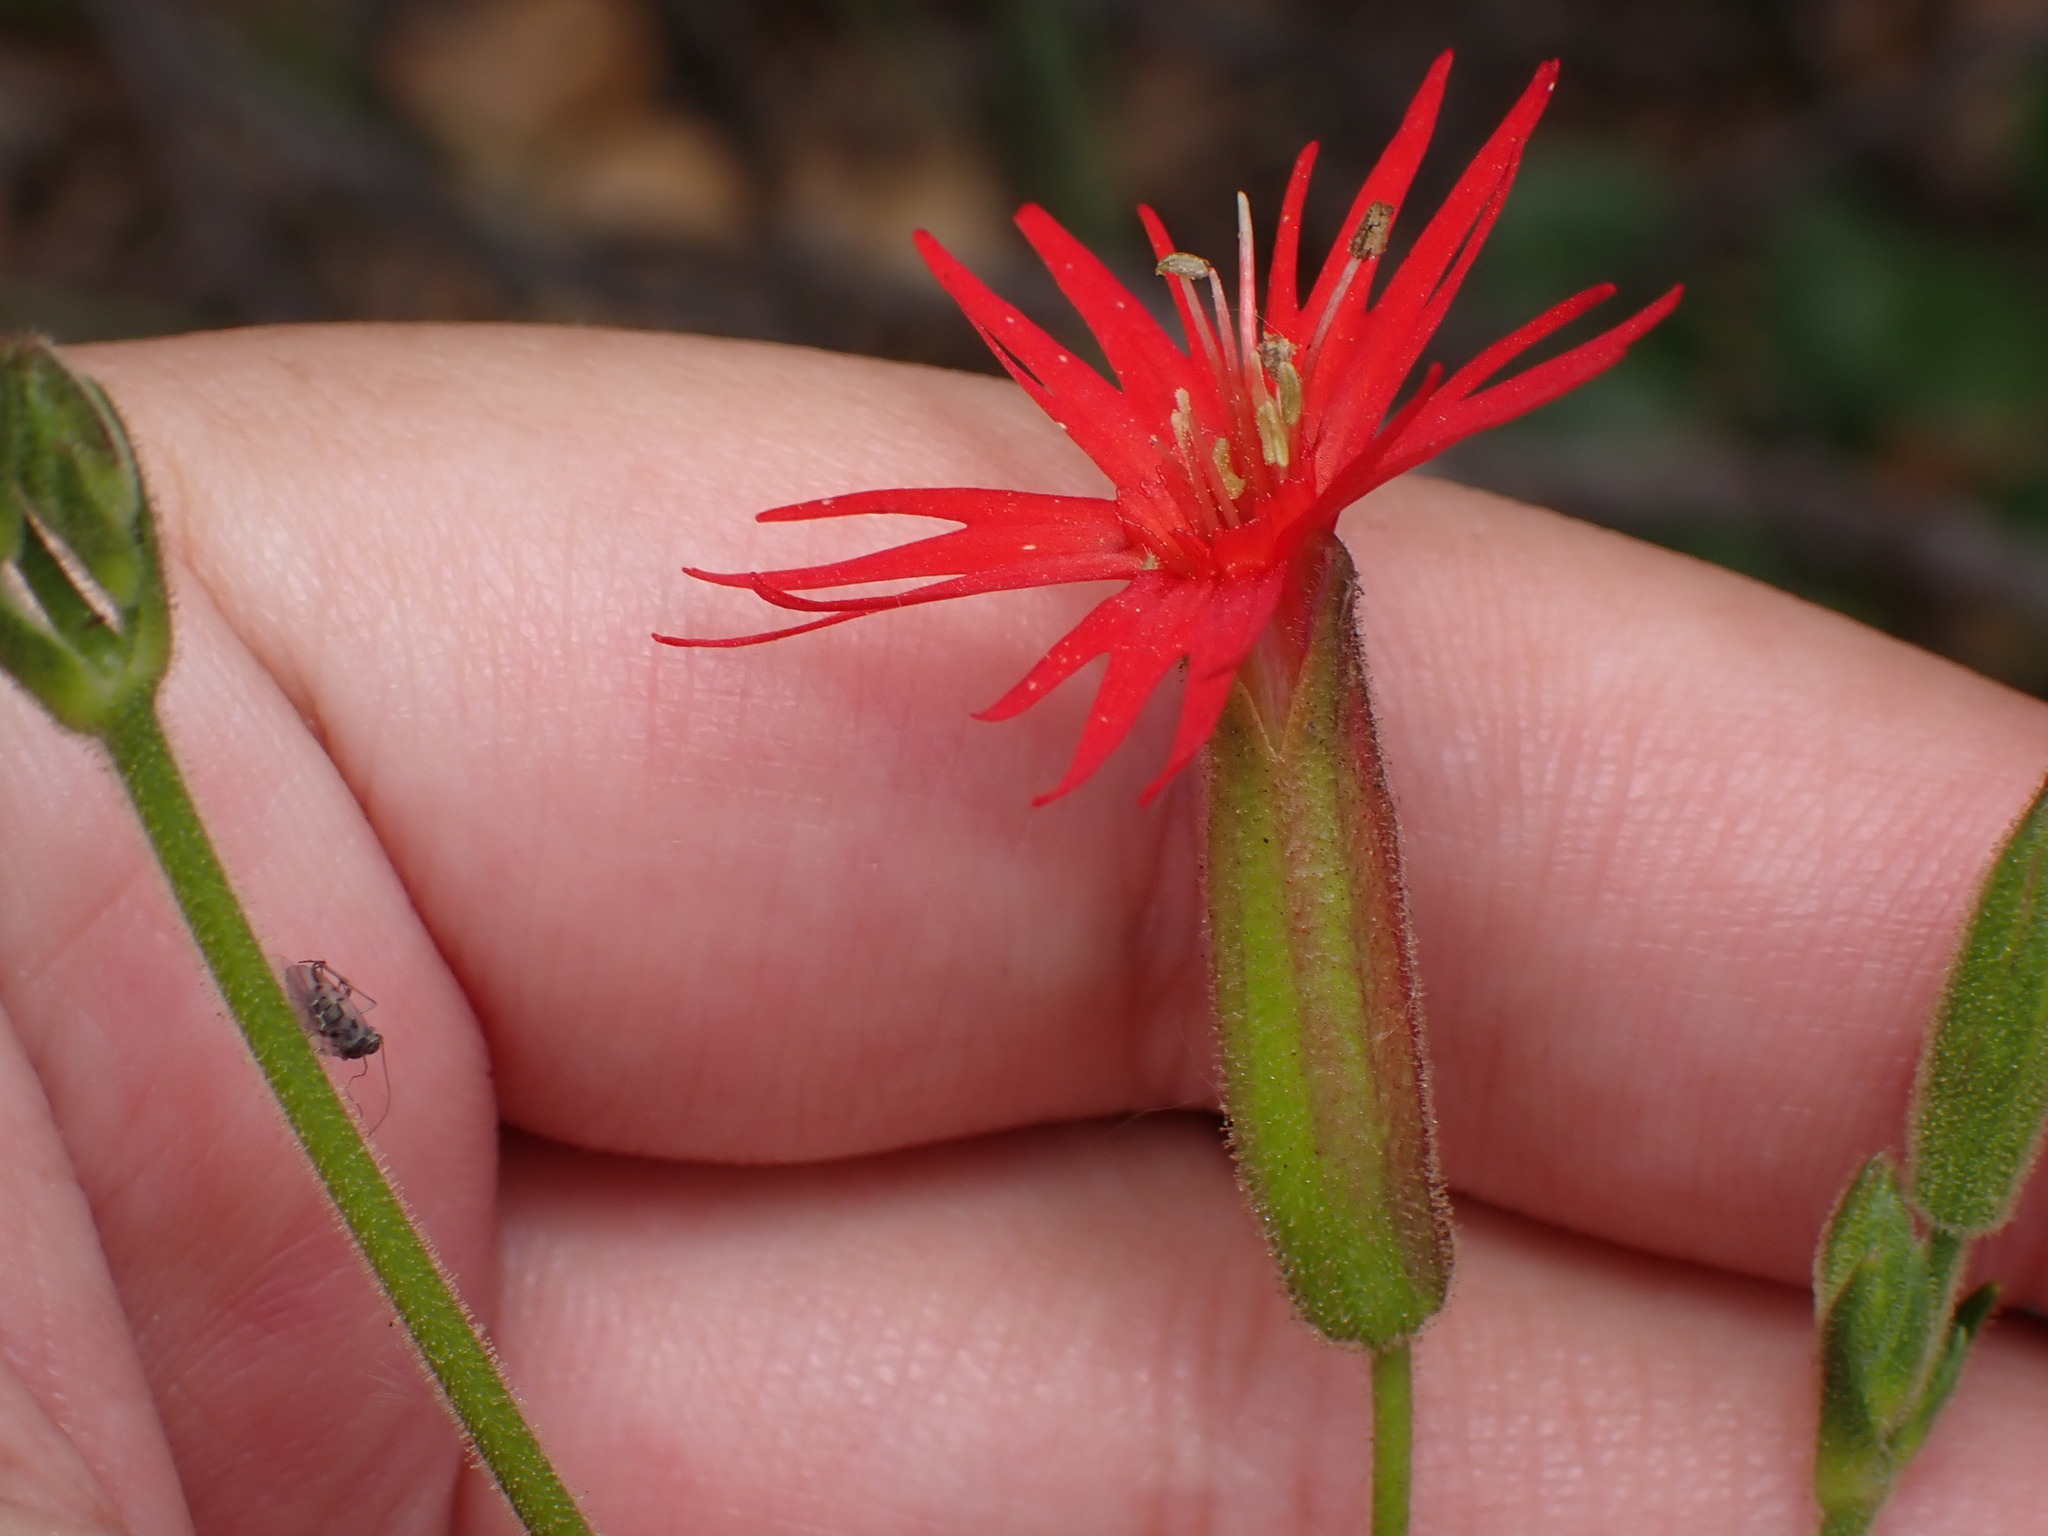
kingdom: Plantae
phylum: Tracheophyta
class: Magnoliopsida
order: Caryophyllales
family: Caryophyllaceae
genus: Silene
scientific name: Silene laciniata
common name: Indian-pink
